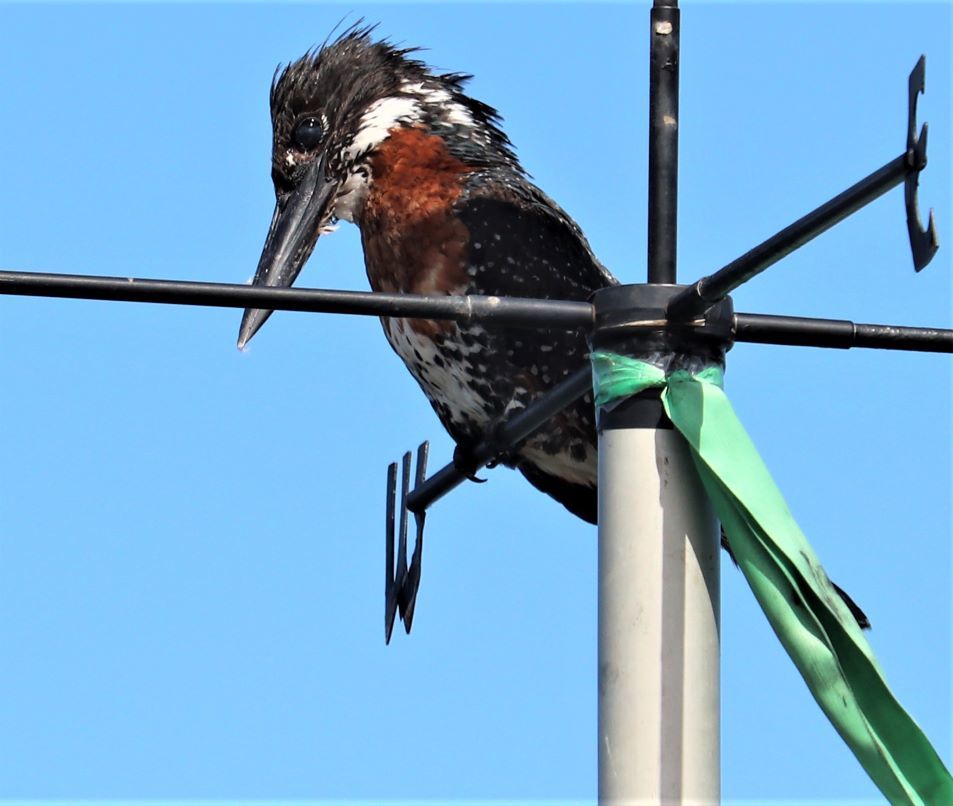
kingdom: Animalia
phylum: Chordata
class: Aves
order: Coraciiformes
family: Alcedinidae
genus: Megaceryle
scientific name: Megaceryle maxima
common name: Giant kingfisher
